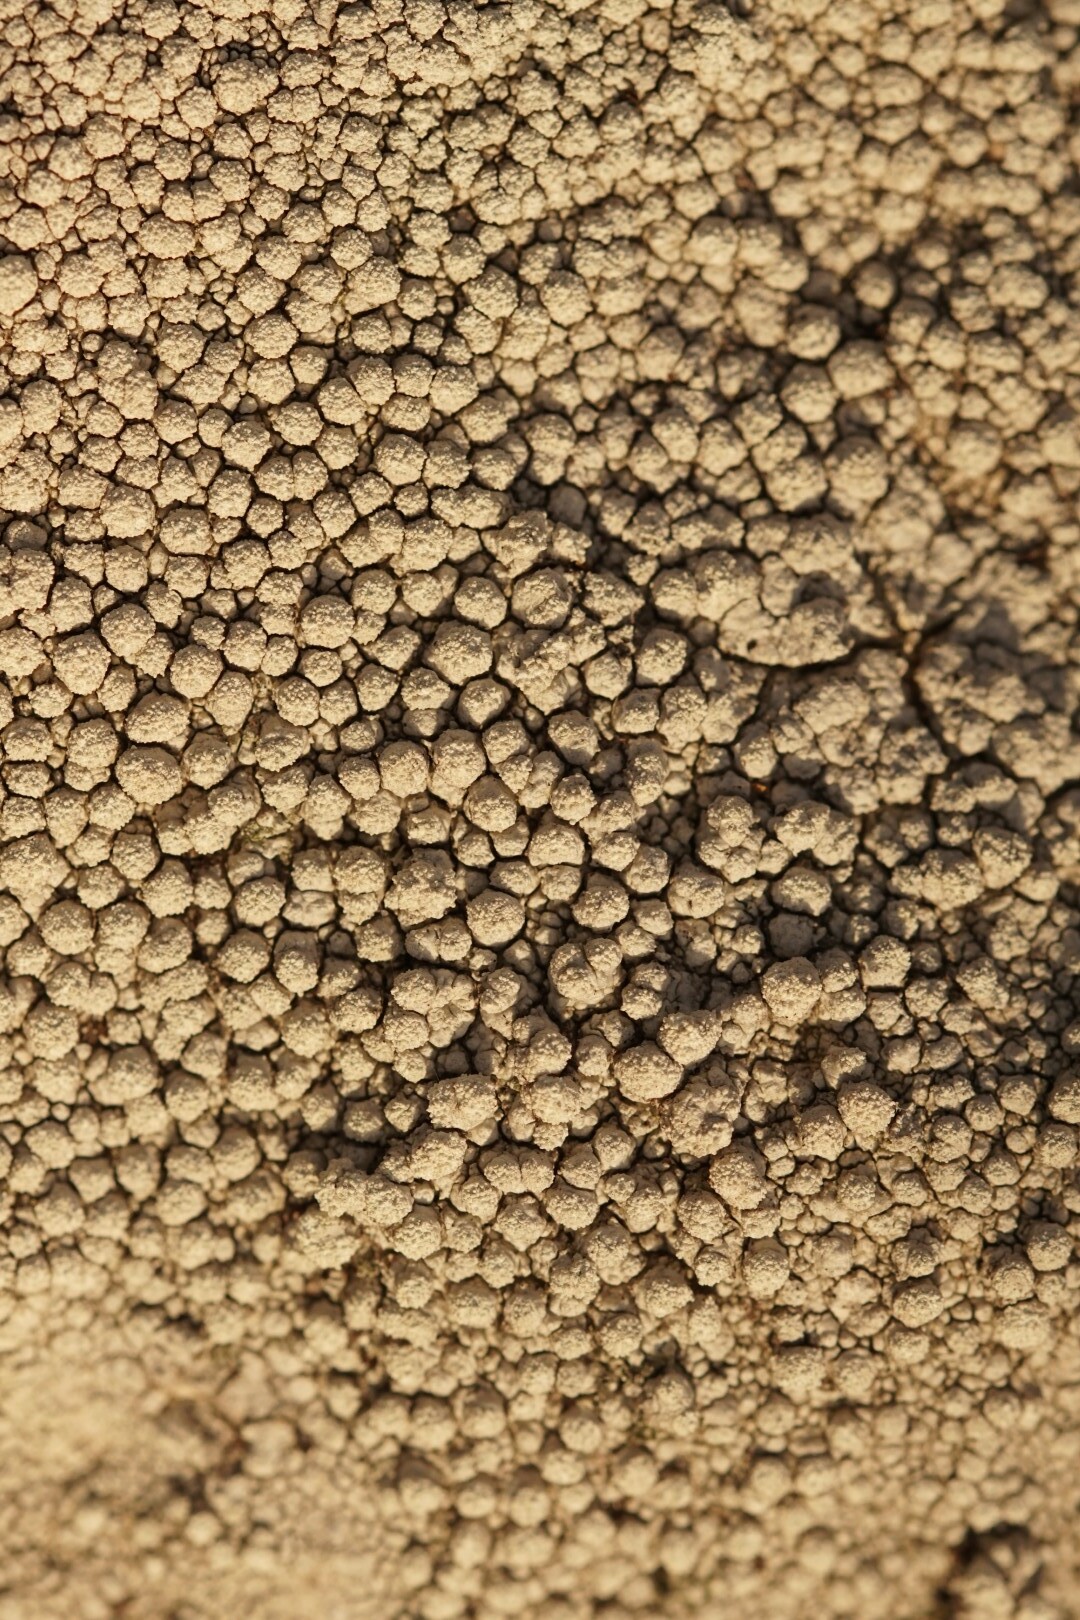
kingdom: Fungi
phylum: Ascomycota
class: Lecanoromycetes
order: Pertusariales
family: Pertusariaceae
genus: Lepra
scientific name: Lepra amara
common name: Bitter wart lichen
